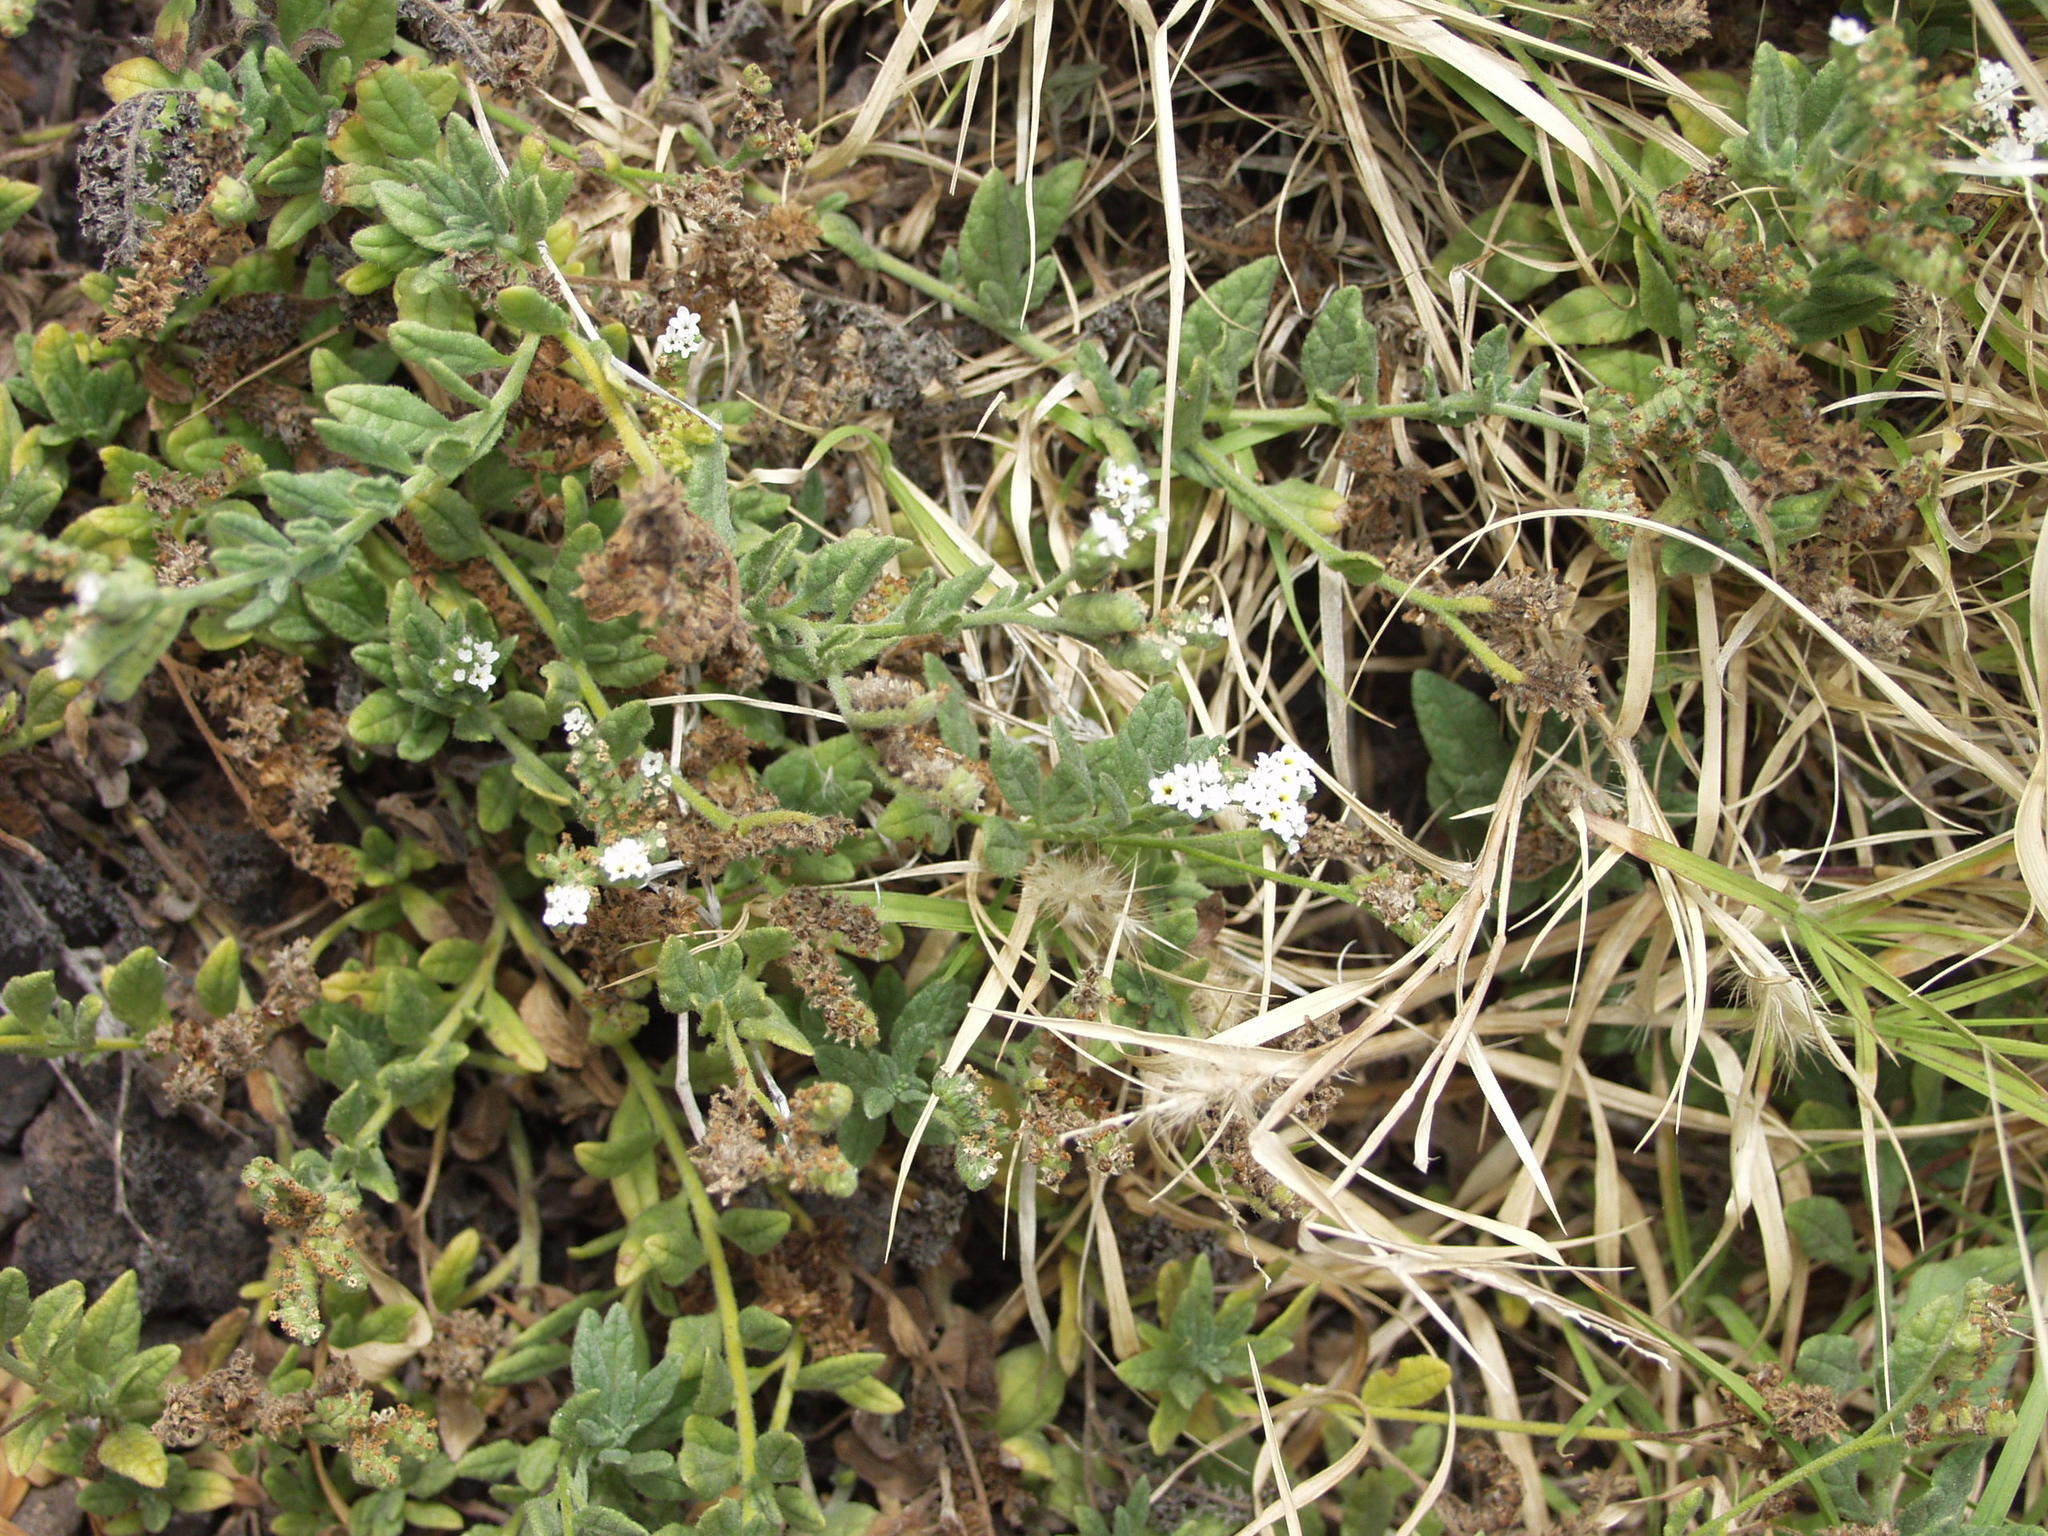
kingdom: Plantae
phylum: Tracheophyta
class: Magnoliopsida
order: Boraginales
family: Heliotropiaceae
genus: Heliotropium
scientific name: Heliotropium ramosissimum
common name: Wavy heliotrope
